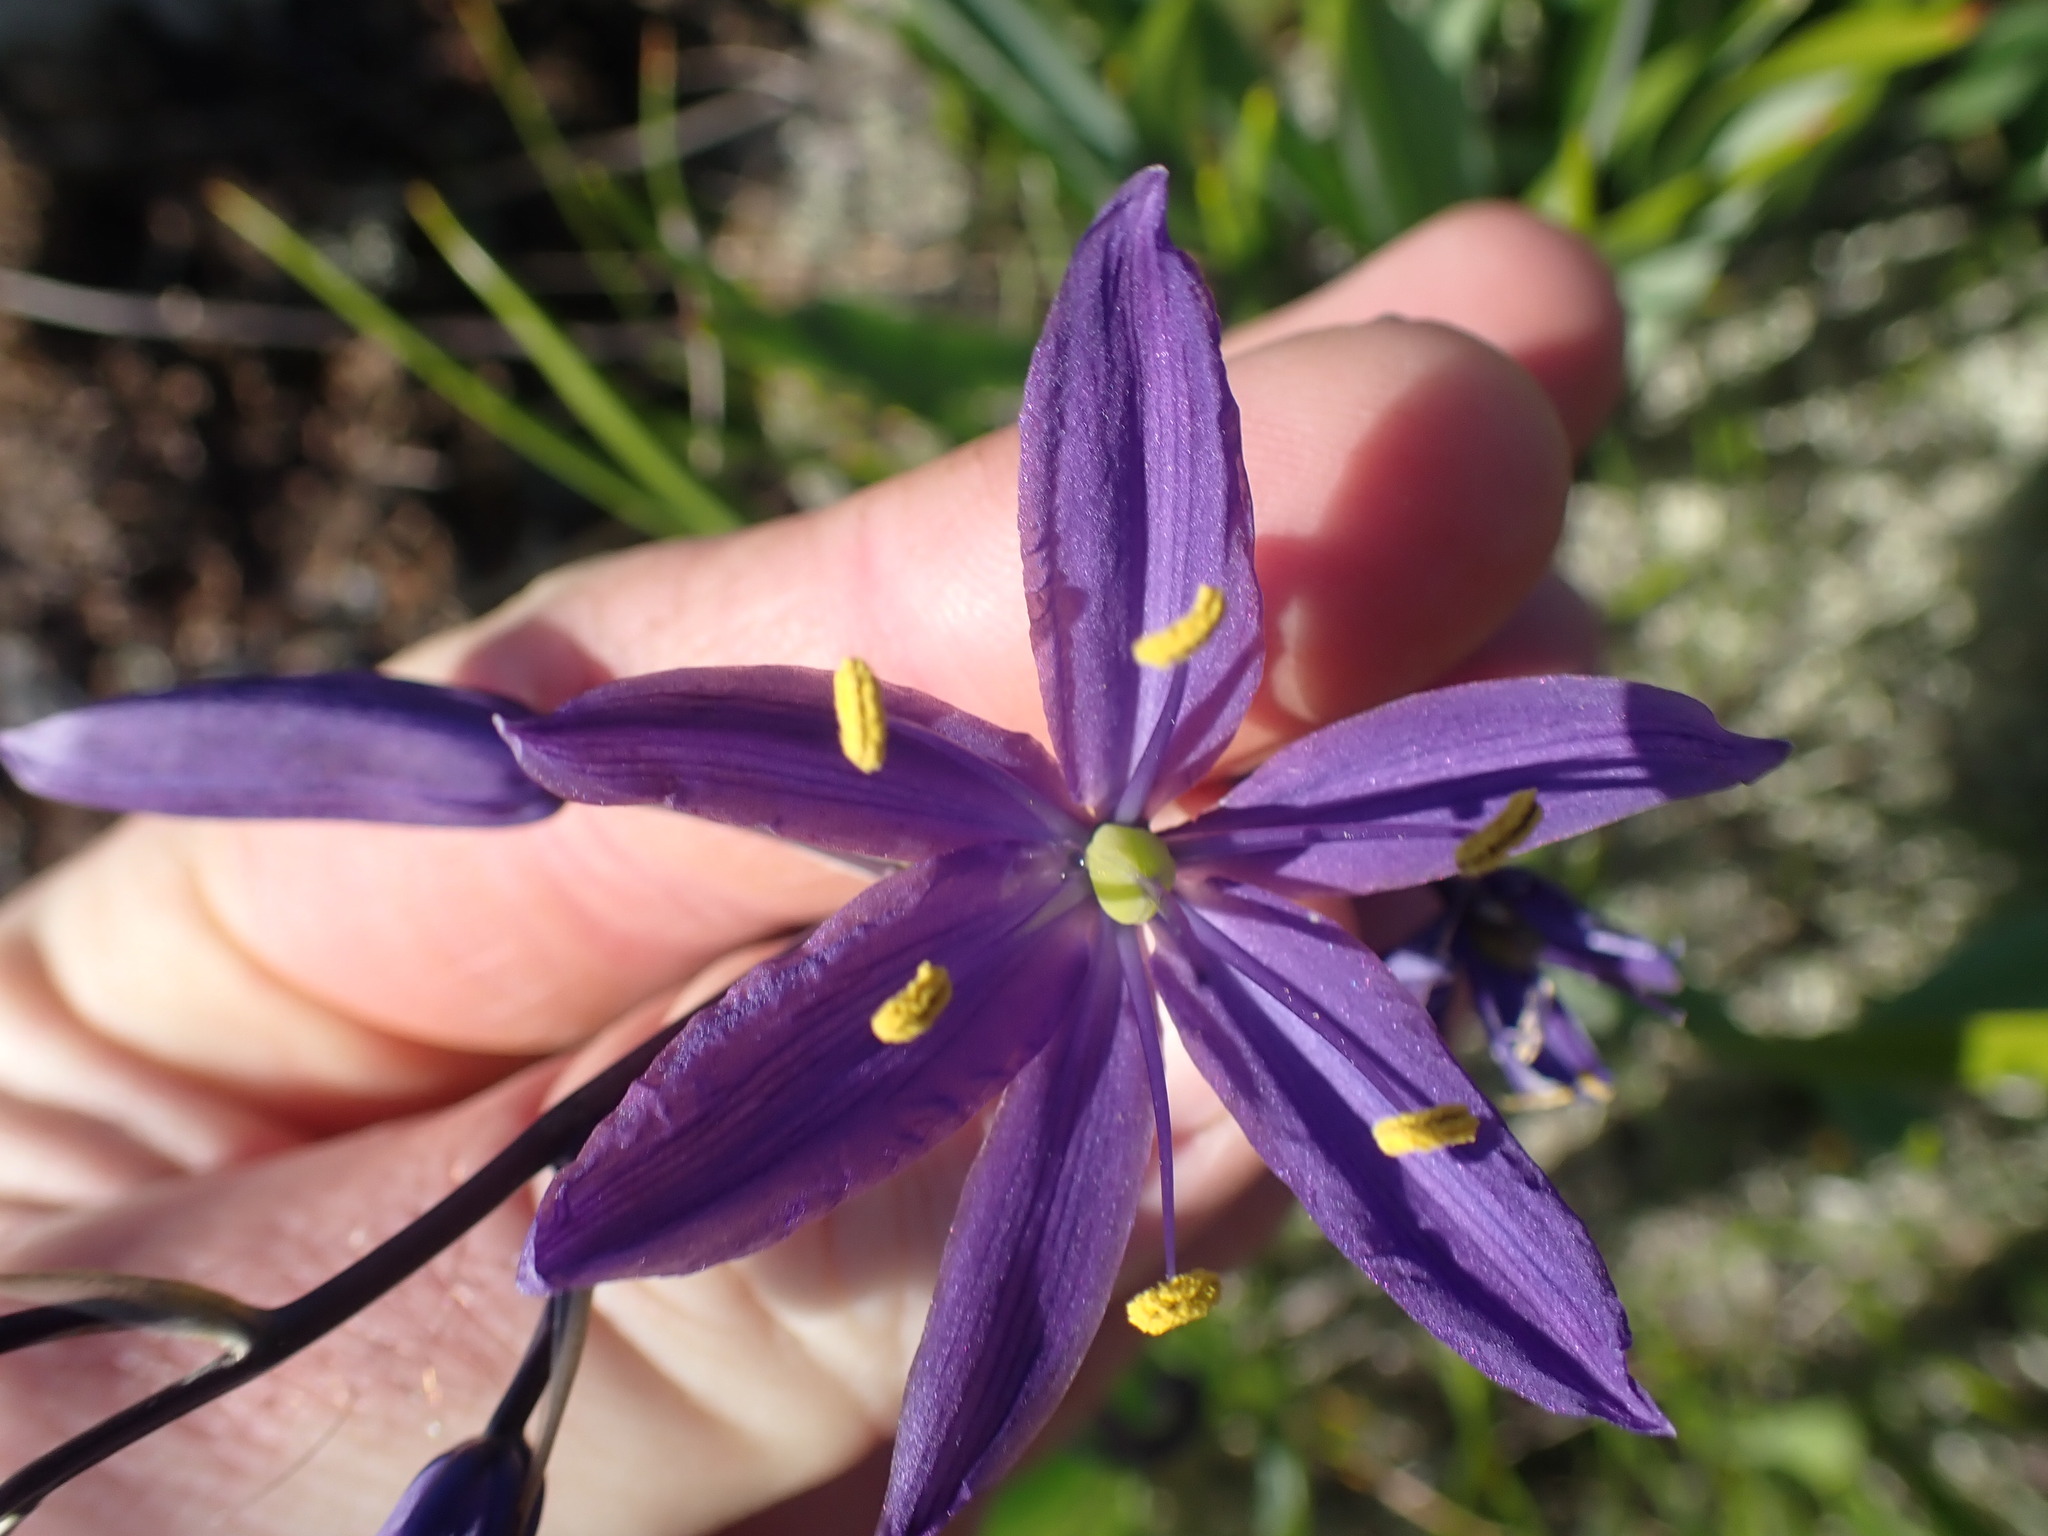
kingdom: Plantae
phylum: Tracheophyta
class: Liliopsida
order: Asparagales
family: Asparagaceae
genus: Camassia
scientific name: Camassia leichtlinii
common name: Leichtlin's camas
